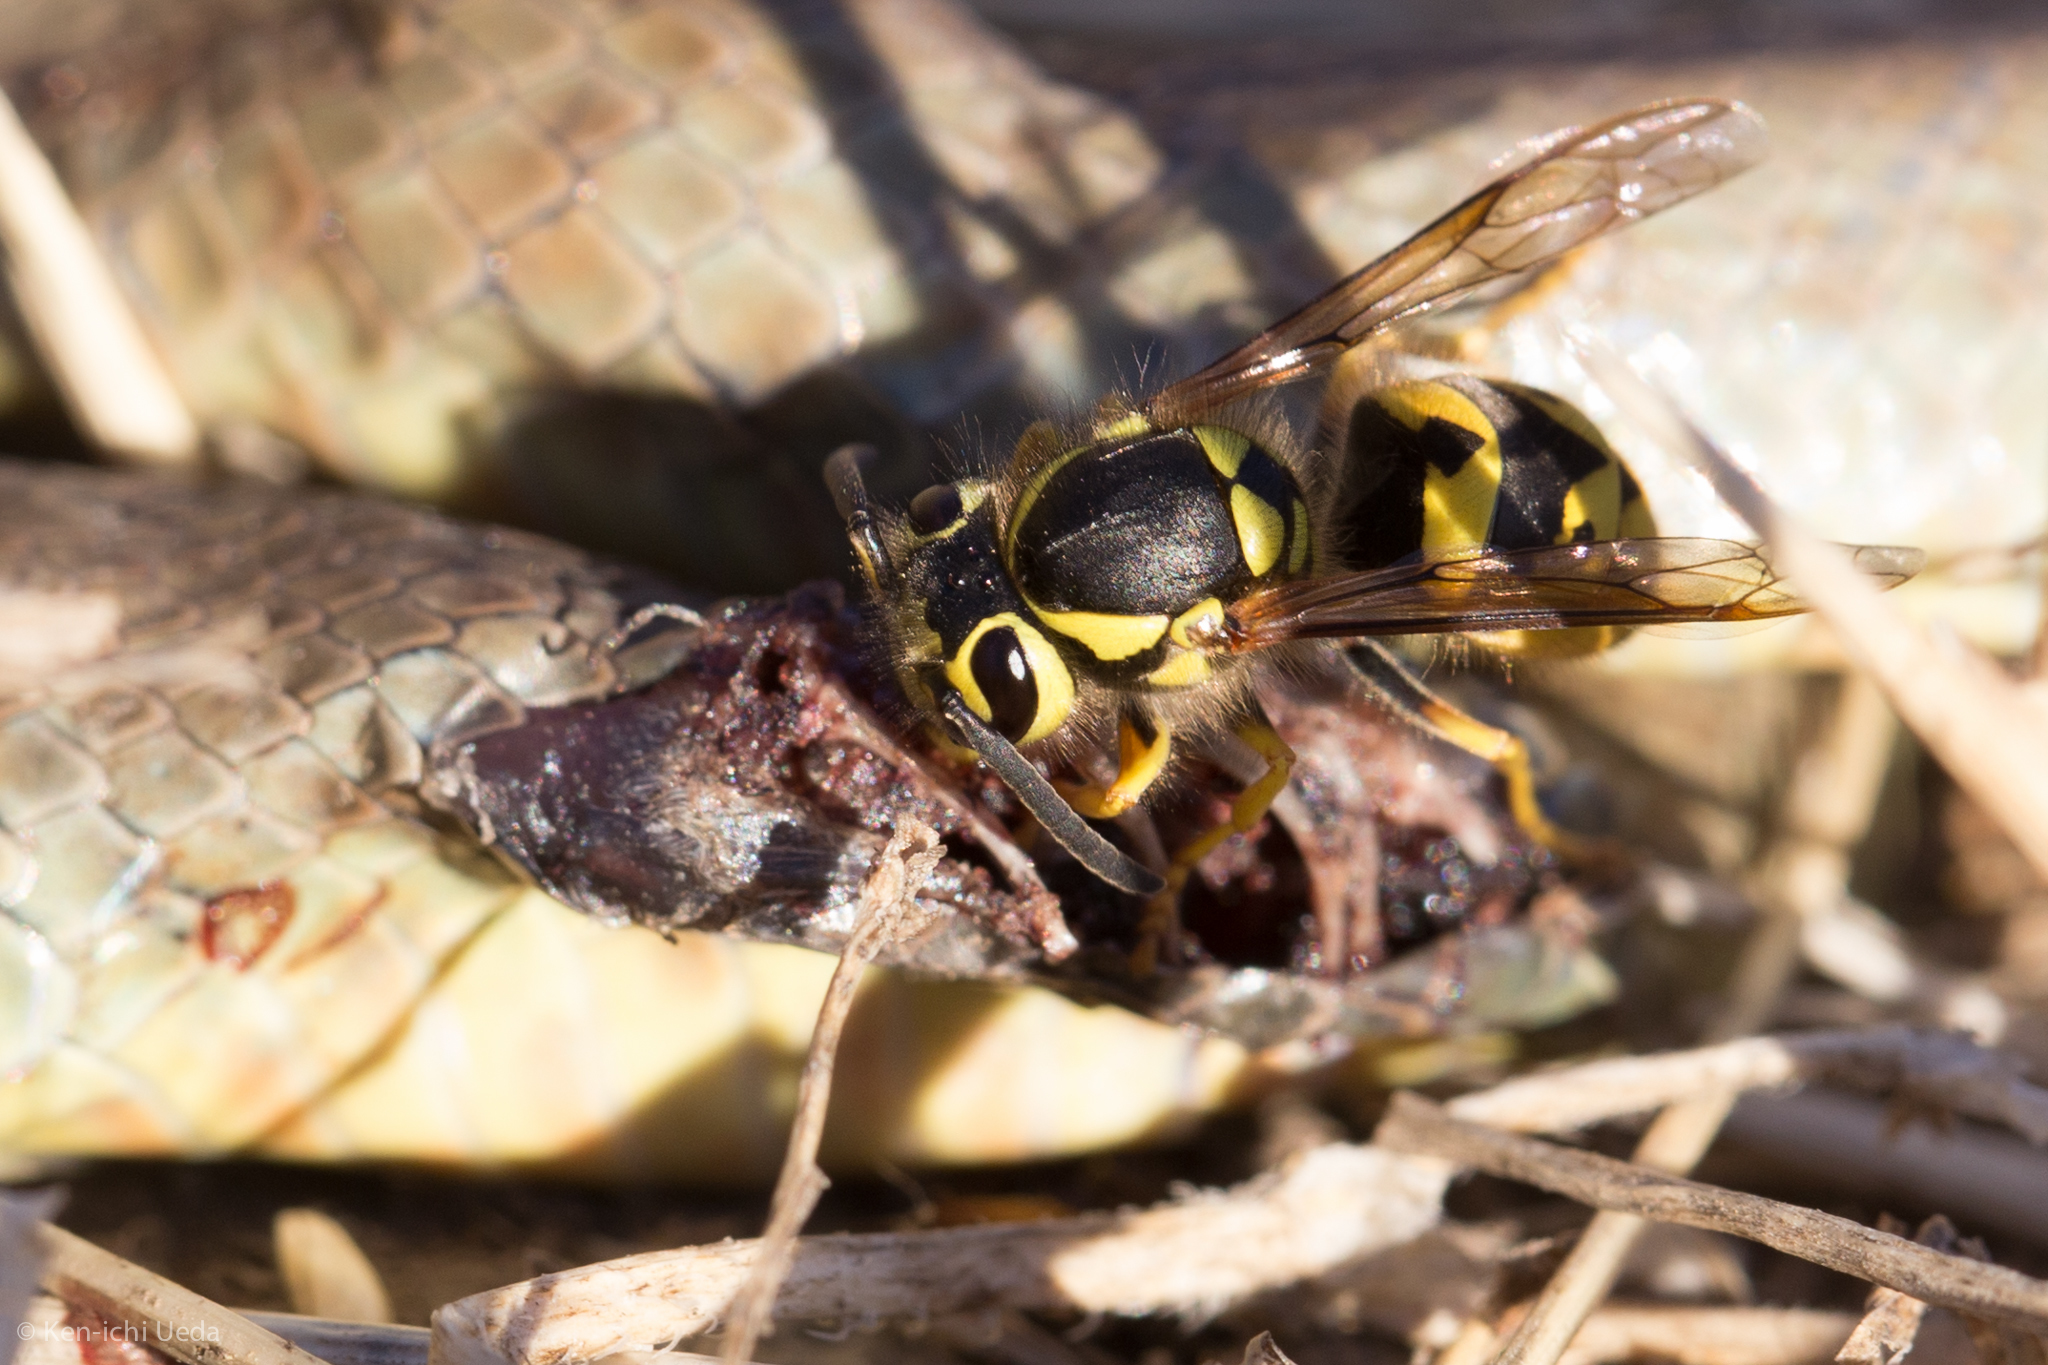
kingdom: Animalia
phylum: Arthropoda
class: Insecta
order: Hymenoptera
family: Vespidae
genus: Vespula
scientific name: Vespula pensylvanica
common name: Western yellowjacket
